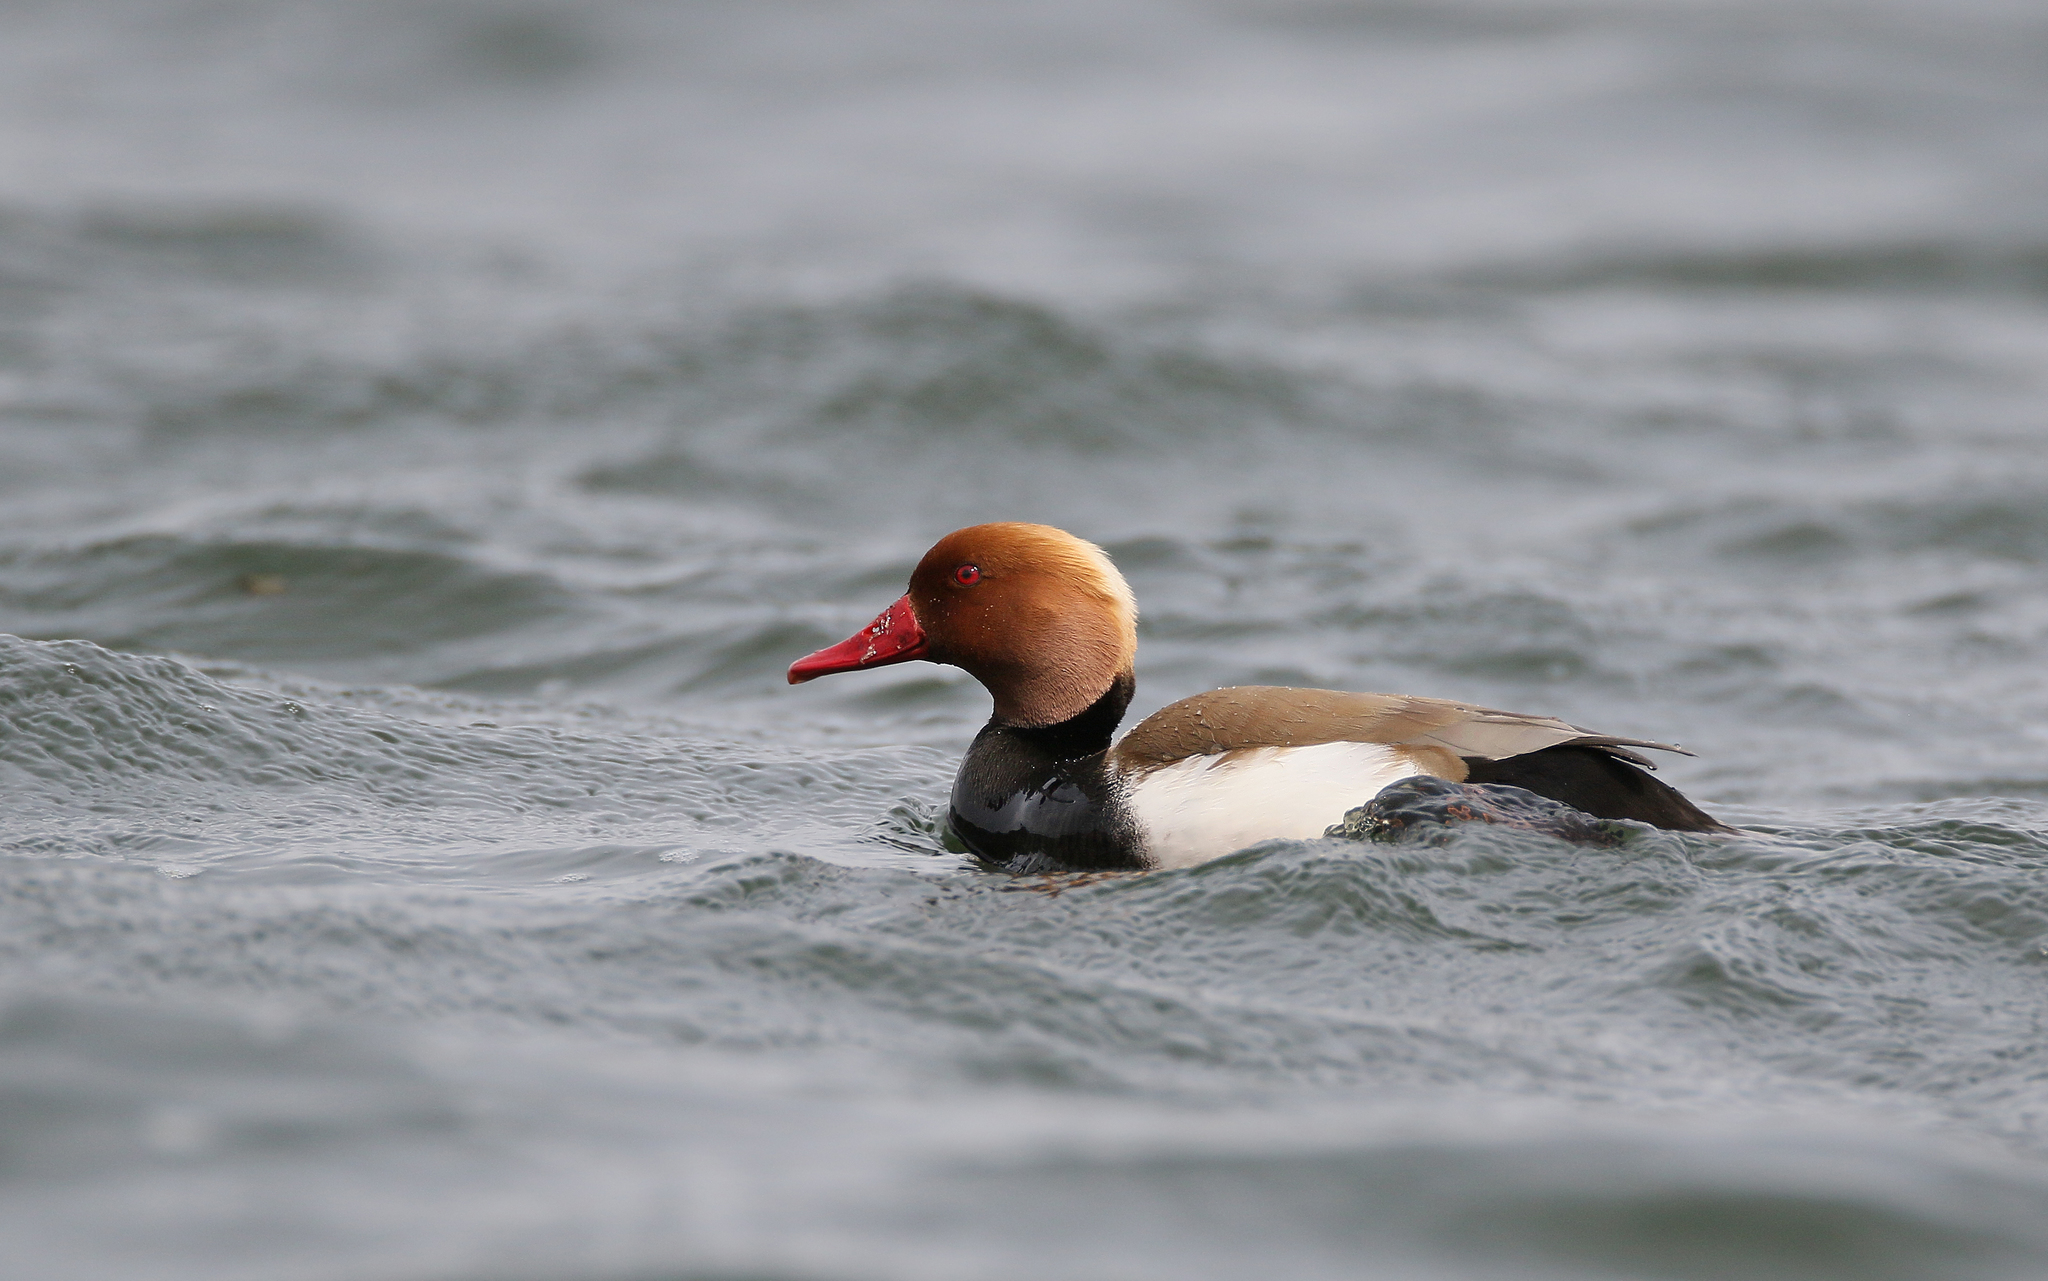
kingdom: Animalia
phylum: Chordata
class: Aves
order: Anseriformes
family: Anatidae
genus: Netta
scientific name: Netta rufina
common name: Red-crested pochard
